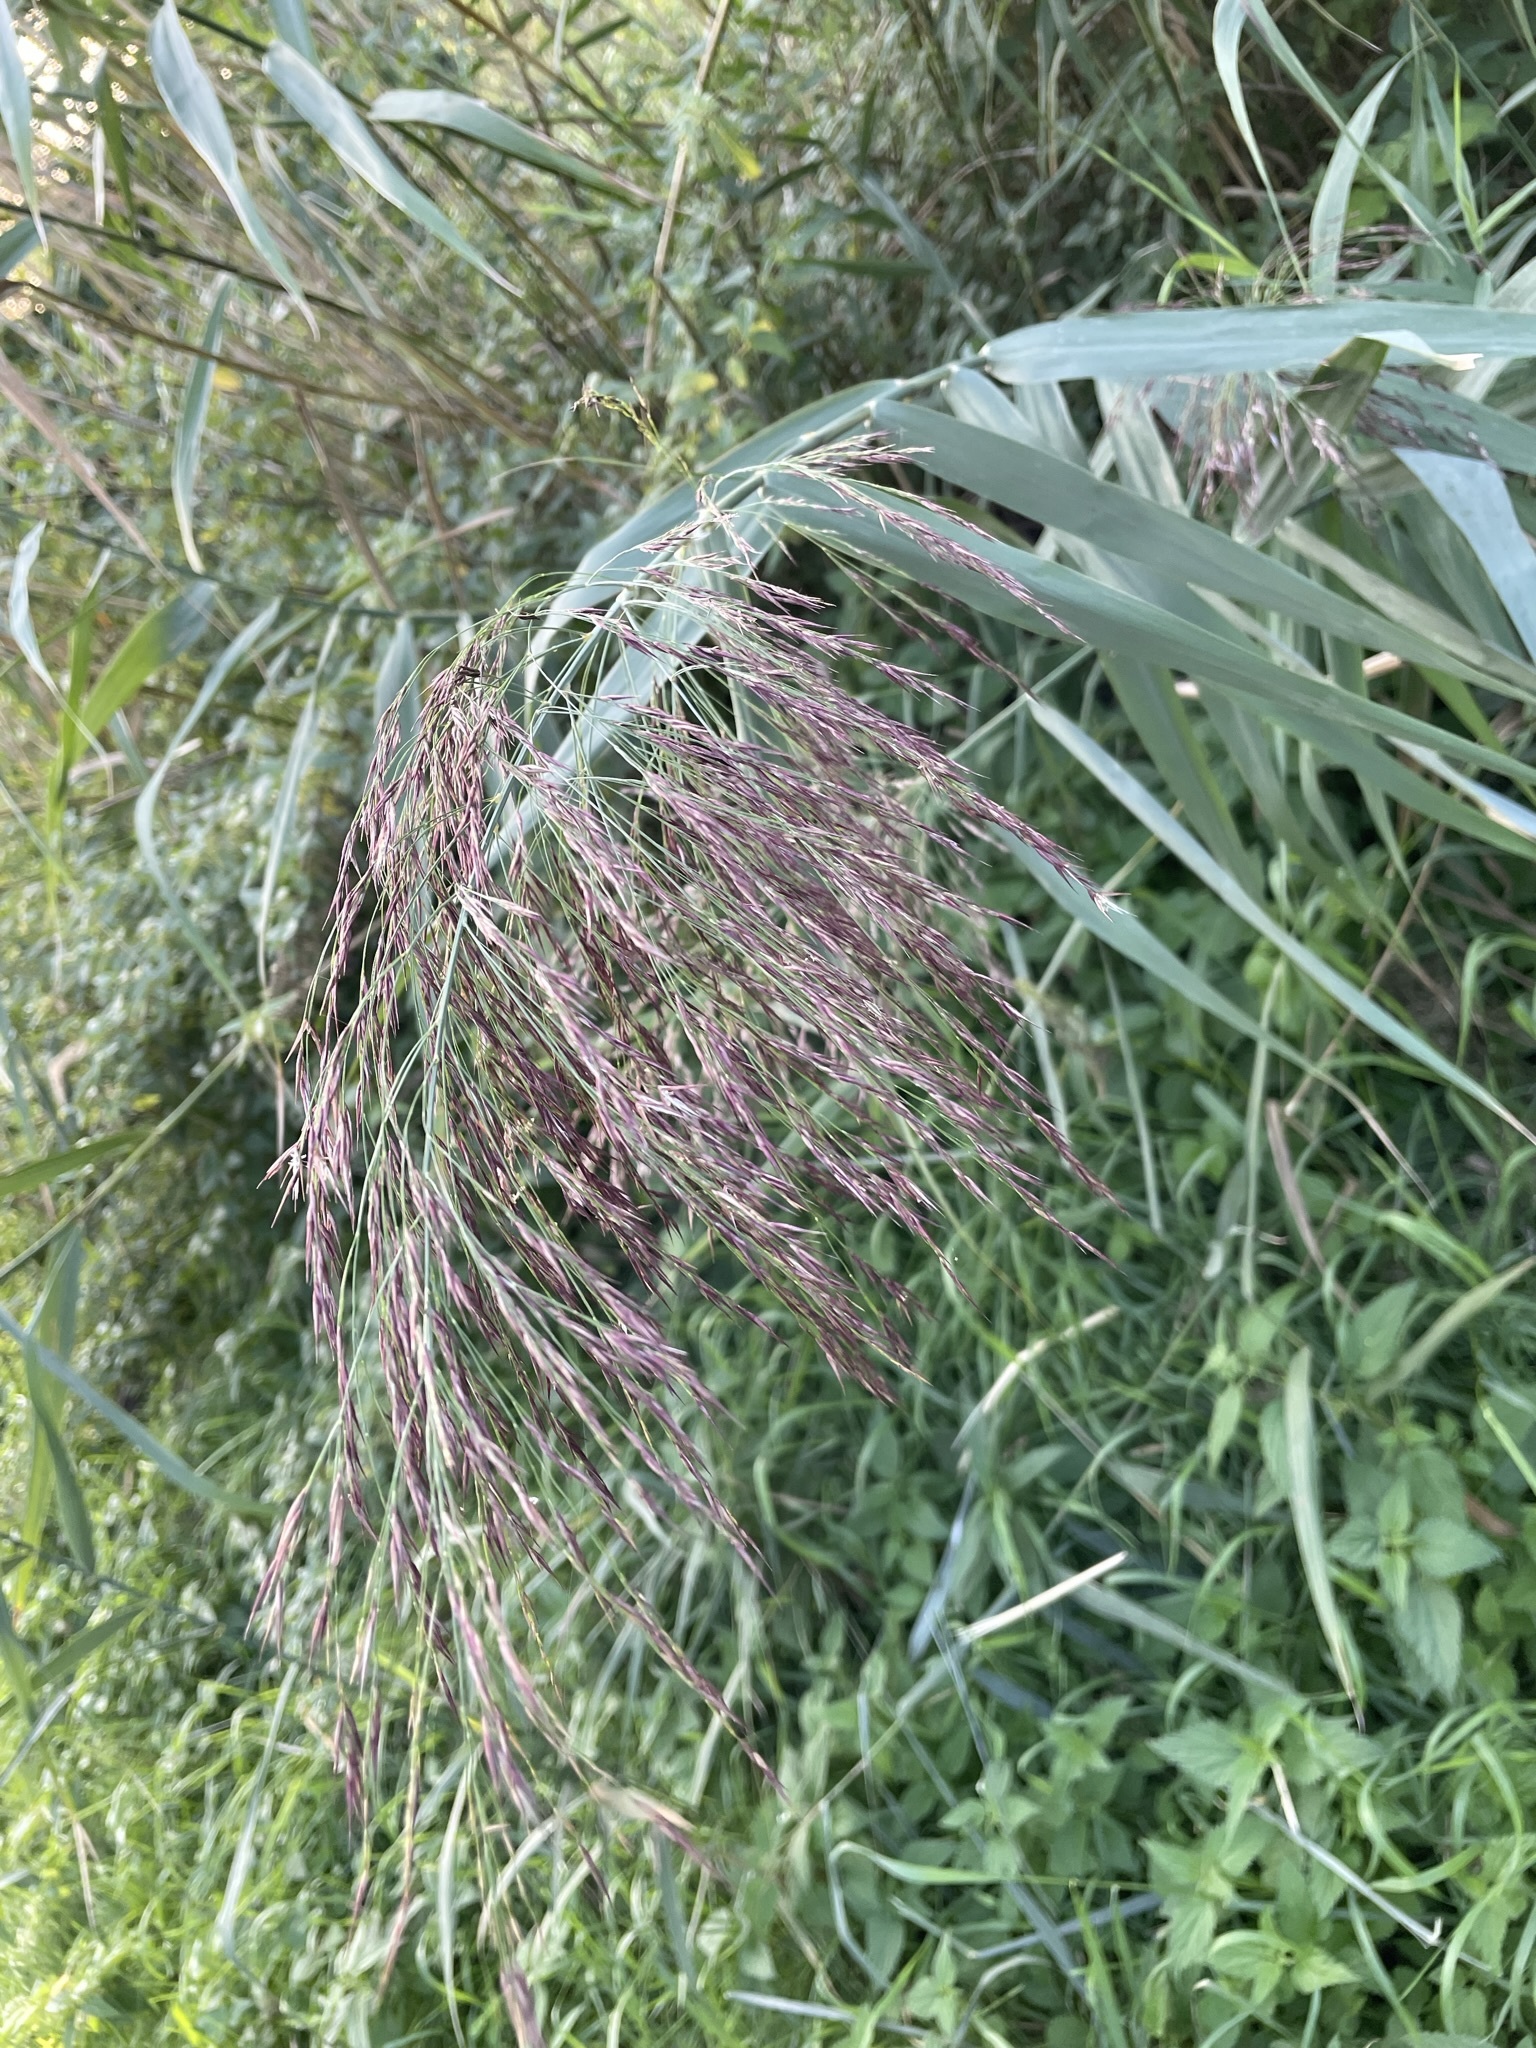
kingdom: Plantae
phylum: Tracheophyta
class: Liliopsida
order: Poales
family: Poaceae
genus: Phragmites
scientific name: Phragmites australis
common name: Common reed
